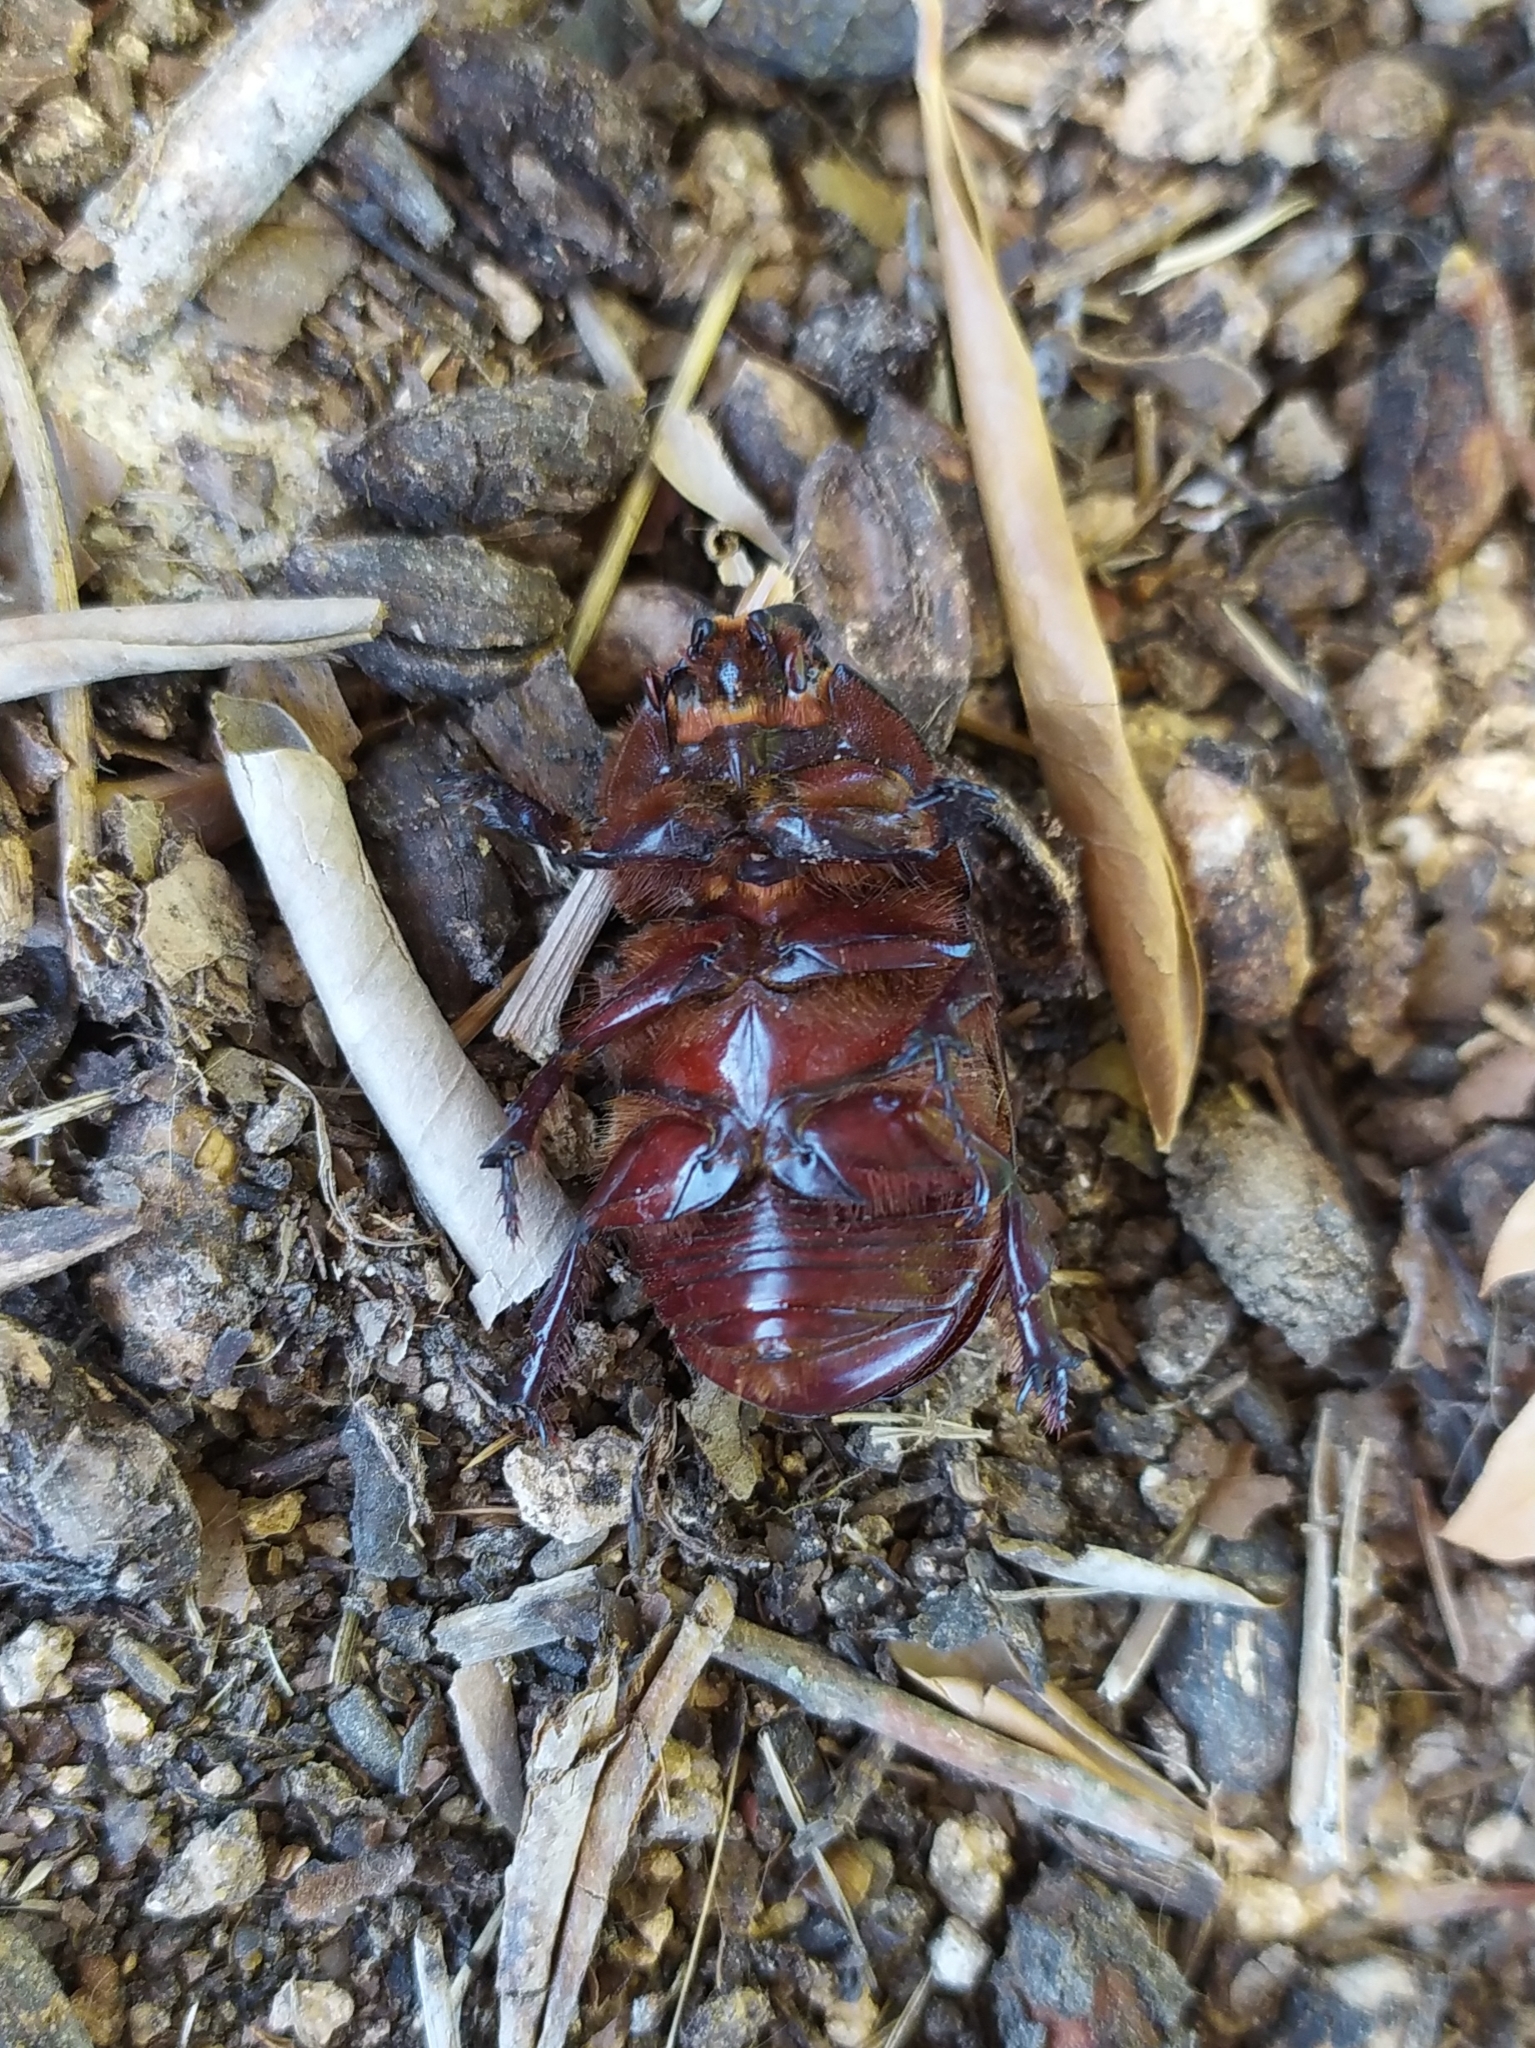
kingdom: Animalia
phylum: Arthropoda
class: Insecta
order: Coleoptera
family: Scarabaeidae
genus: Oryctes
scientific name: Oryctes nasicornis
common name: European rhinoceros beetle
